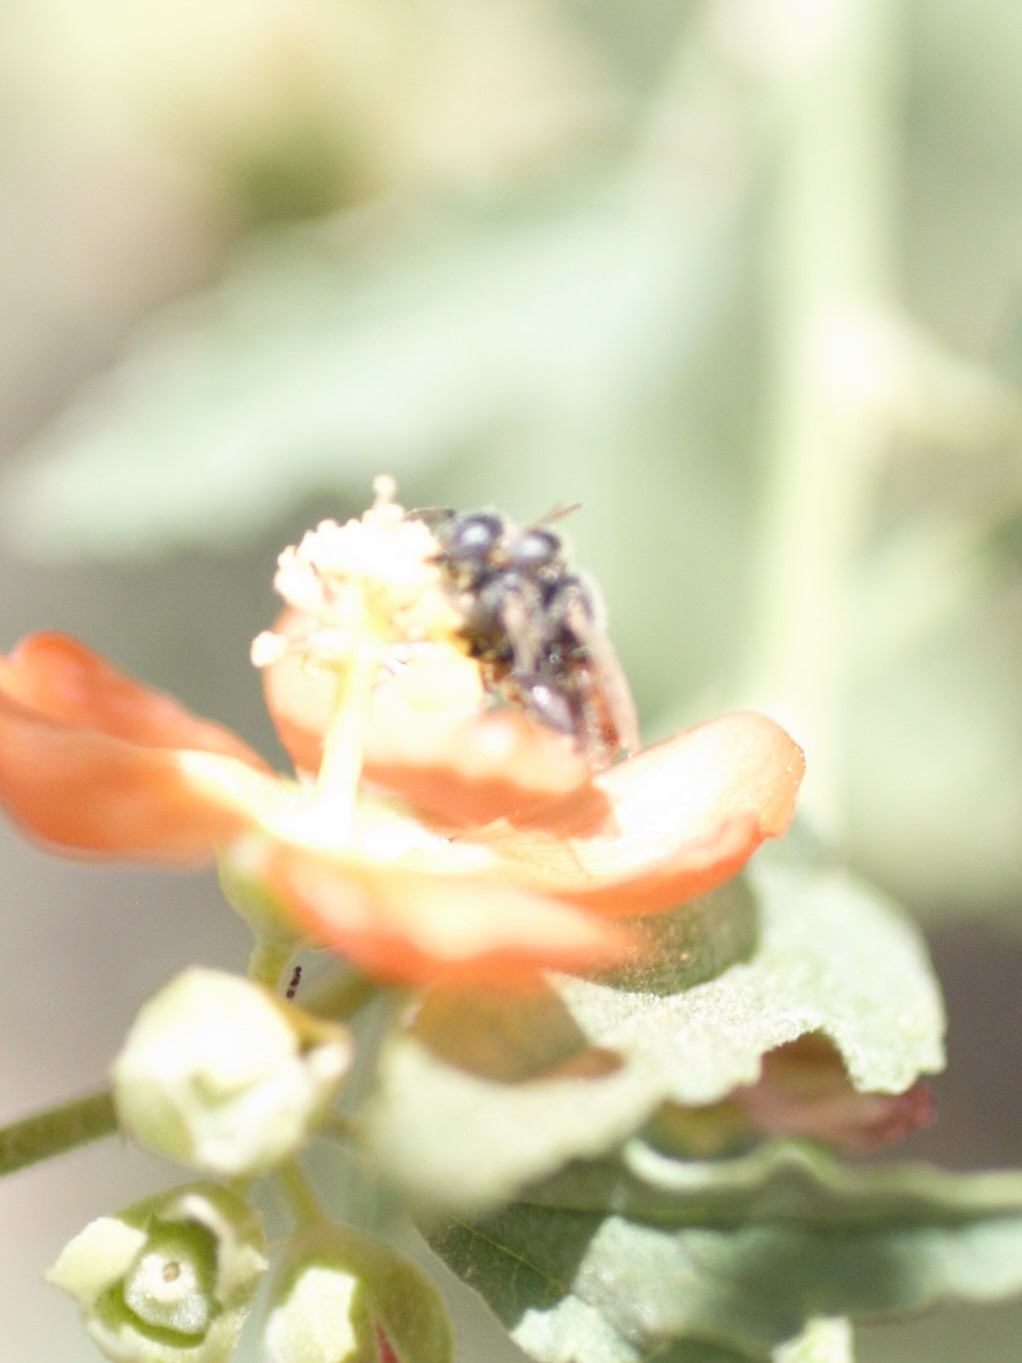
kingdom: Animalia
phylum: Arthropoda
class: Insecta
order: Hymenoptera
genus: Macroteropsis
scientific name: Macroteropsis
